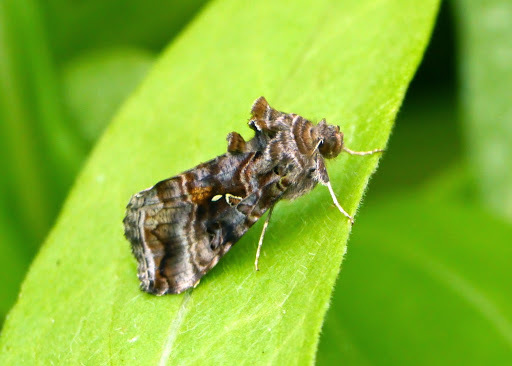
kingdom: Animalia
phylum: Arthropoda
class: Insecta
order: Lepidoptera
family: Noctuidae
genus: Autographa
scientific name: Autographa buraetica
